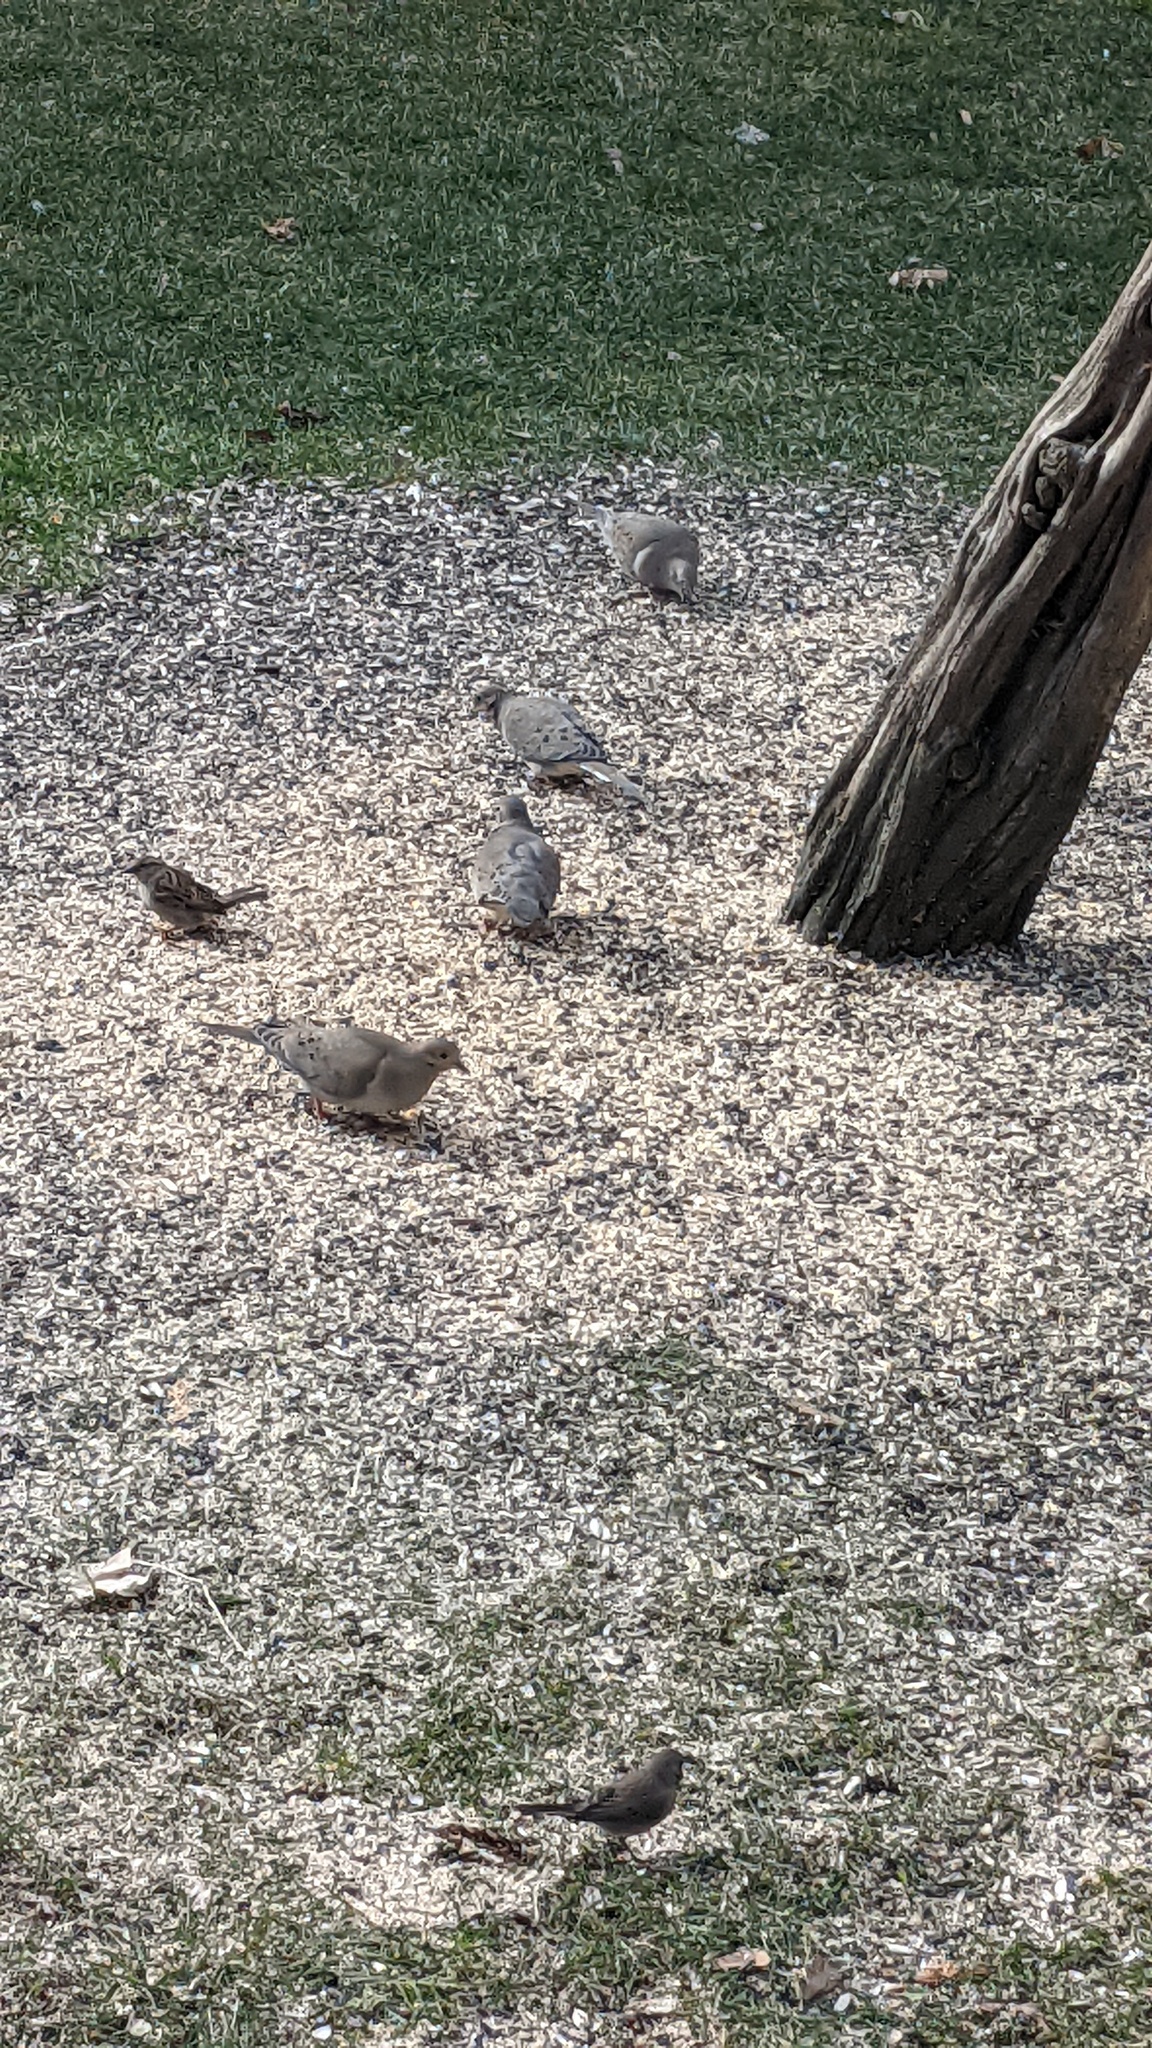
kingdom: Animalia
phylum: Chordata
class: Aves
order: Columbiformes
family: Columbidae
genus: Zenaida
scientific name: Zenaida macroura
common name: Mourning dove
